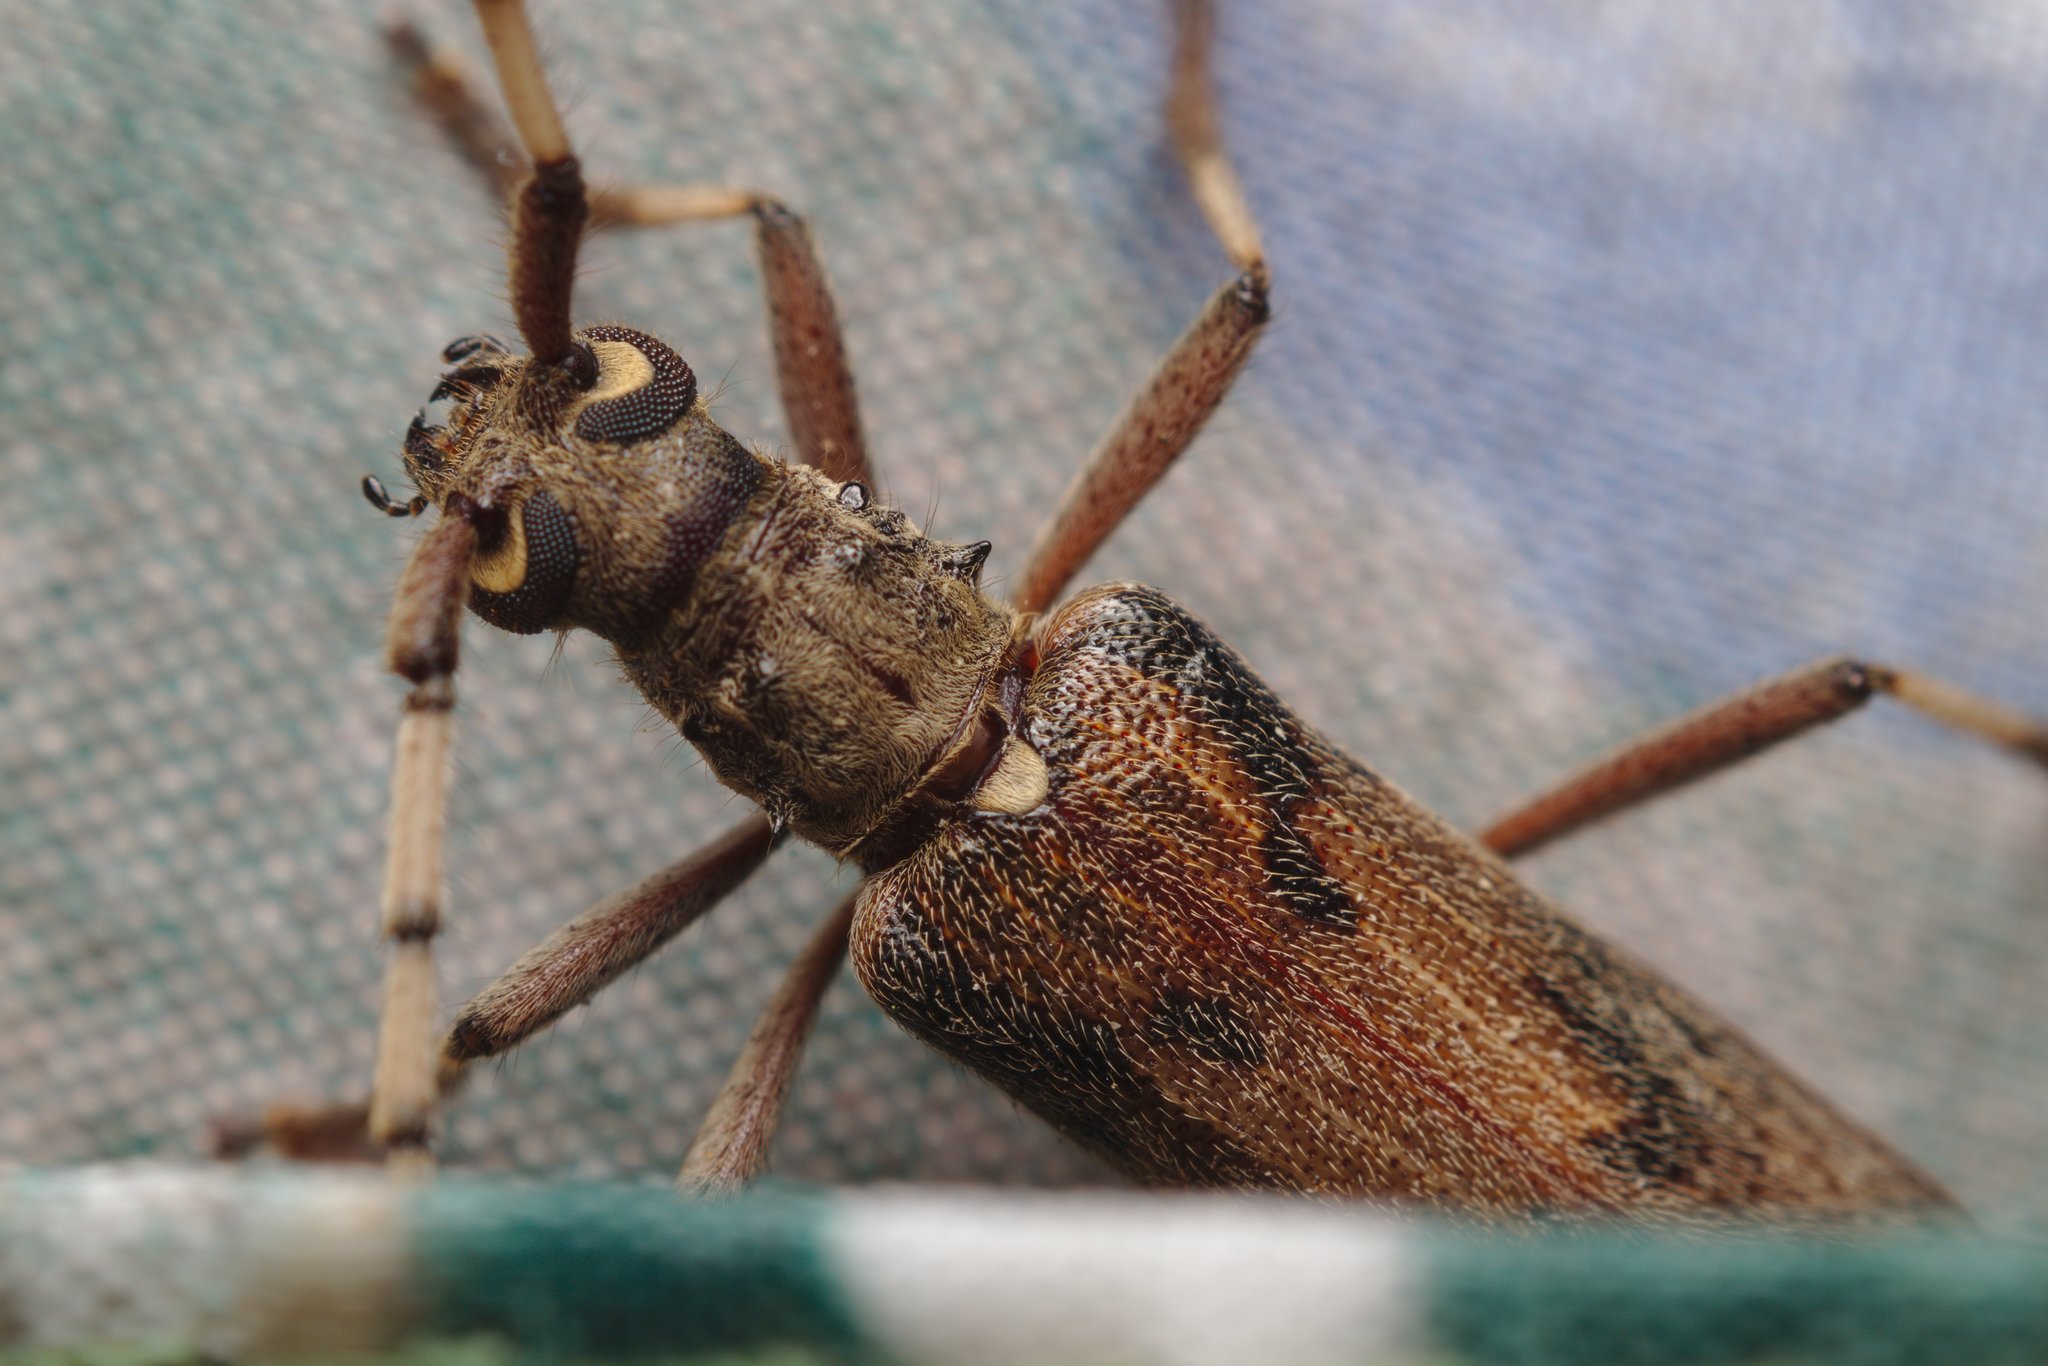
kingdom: Animalia
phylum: Arthropoda
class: Insecta
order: Coleoptera
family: Cerambycidae
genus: Didymocantha
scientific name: Didymocantha obliqua
